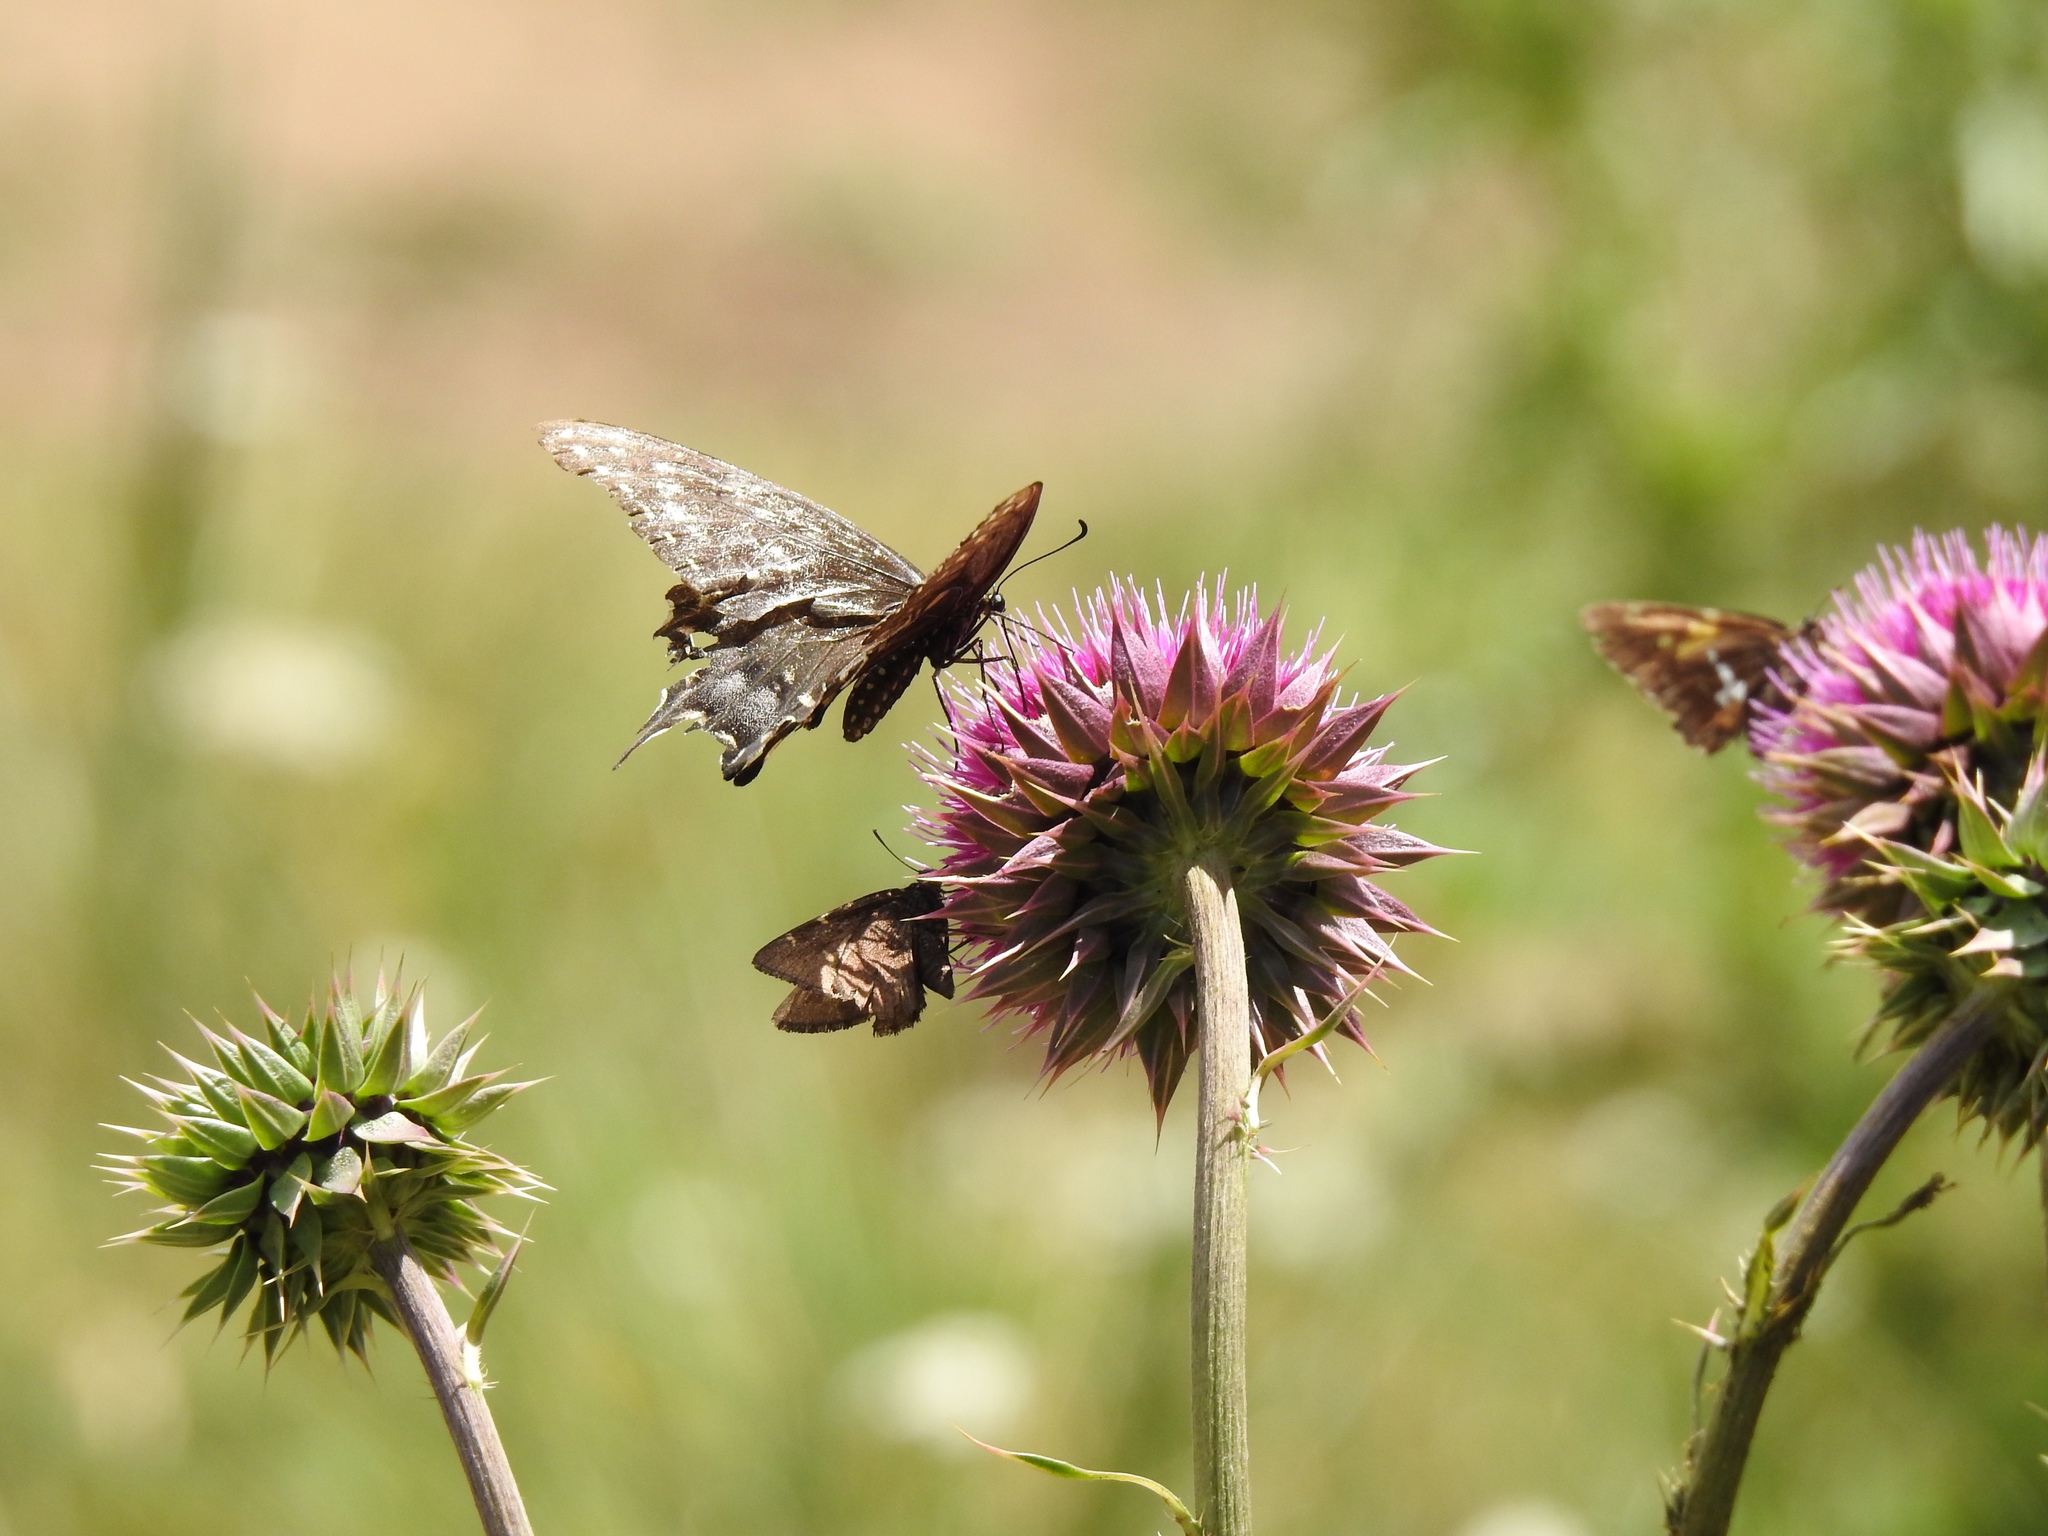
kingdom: Animalia
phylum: Arthropoda
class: Insecta
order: Lepidoptera
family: Papilionidae
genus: Papilio
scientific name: Papilio polyxenes
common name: Black swallowtail
